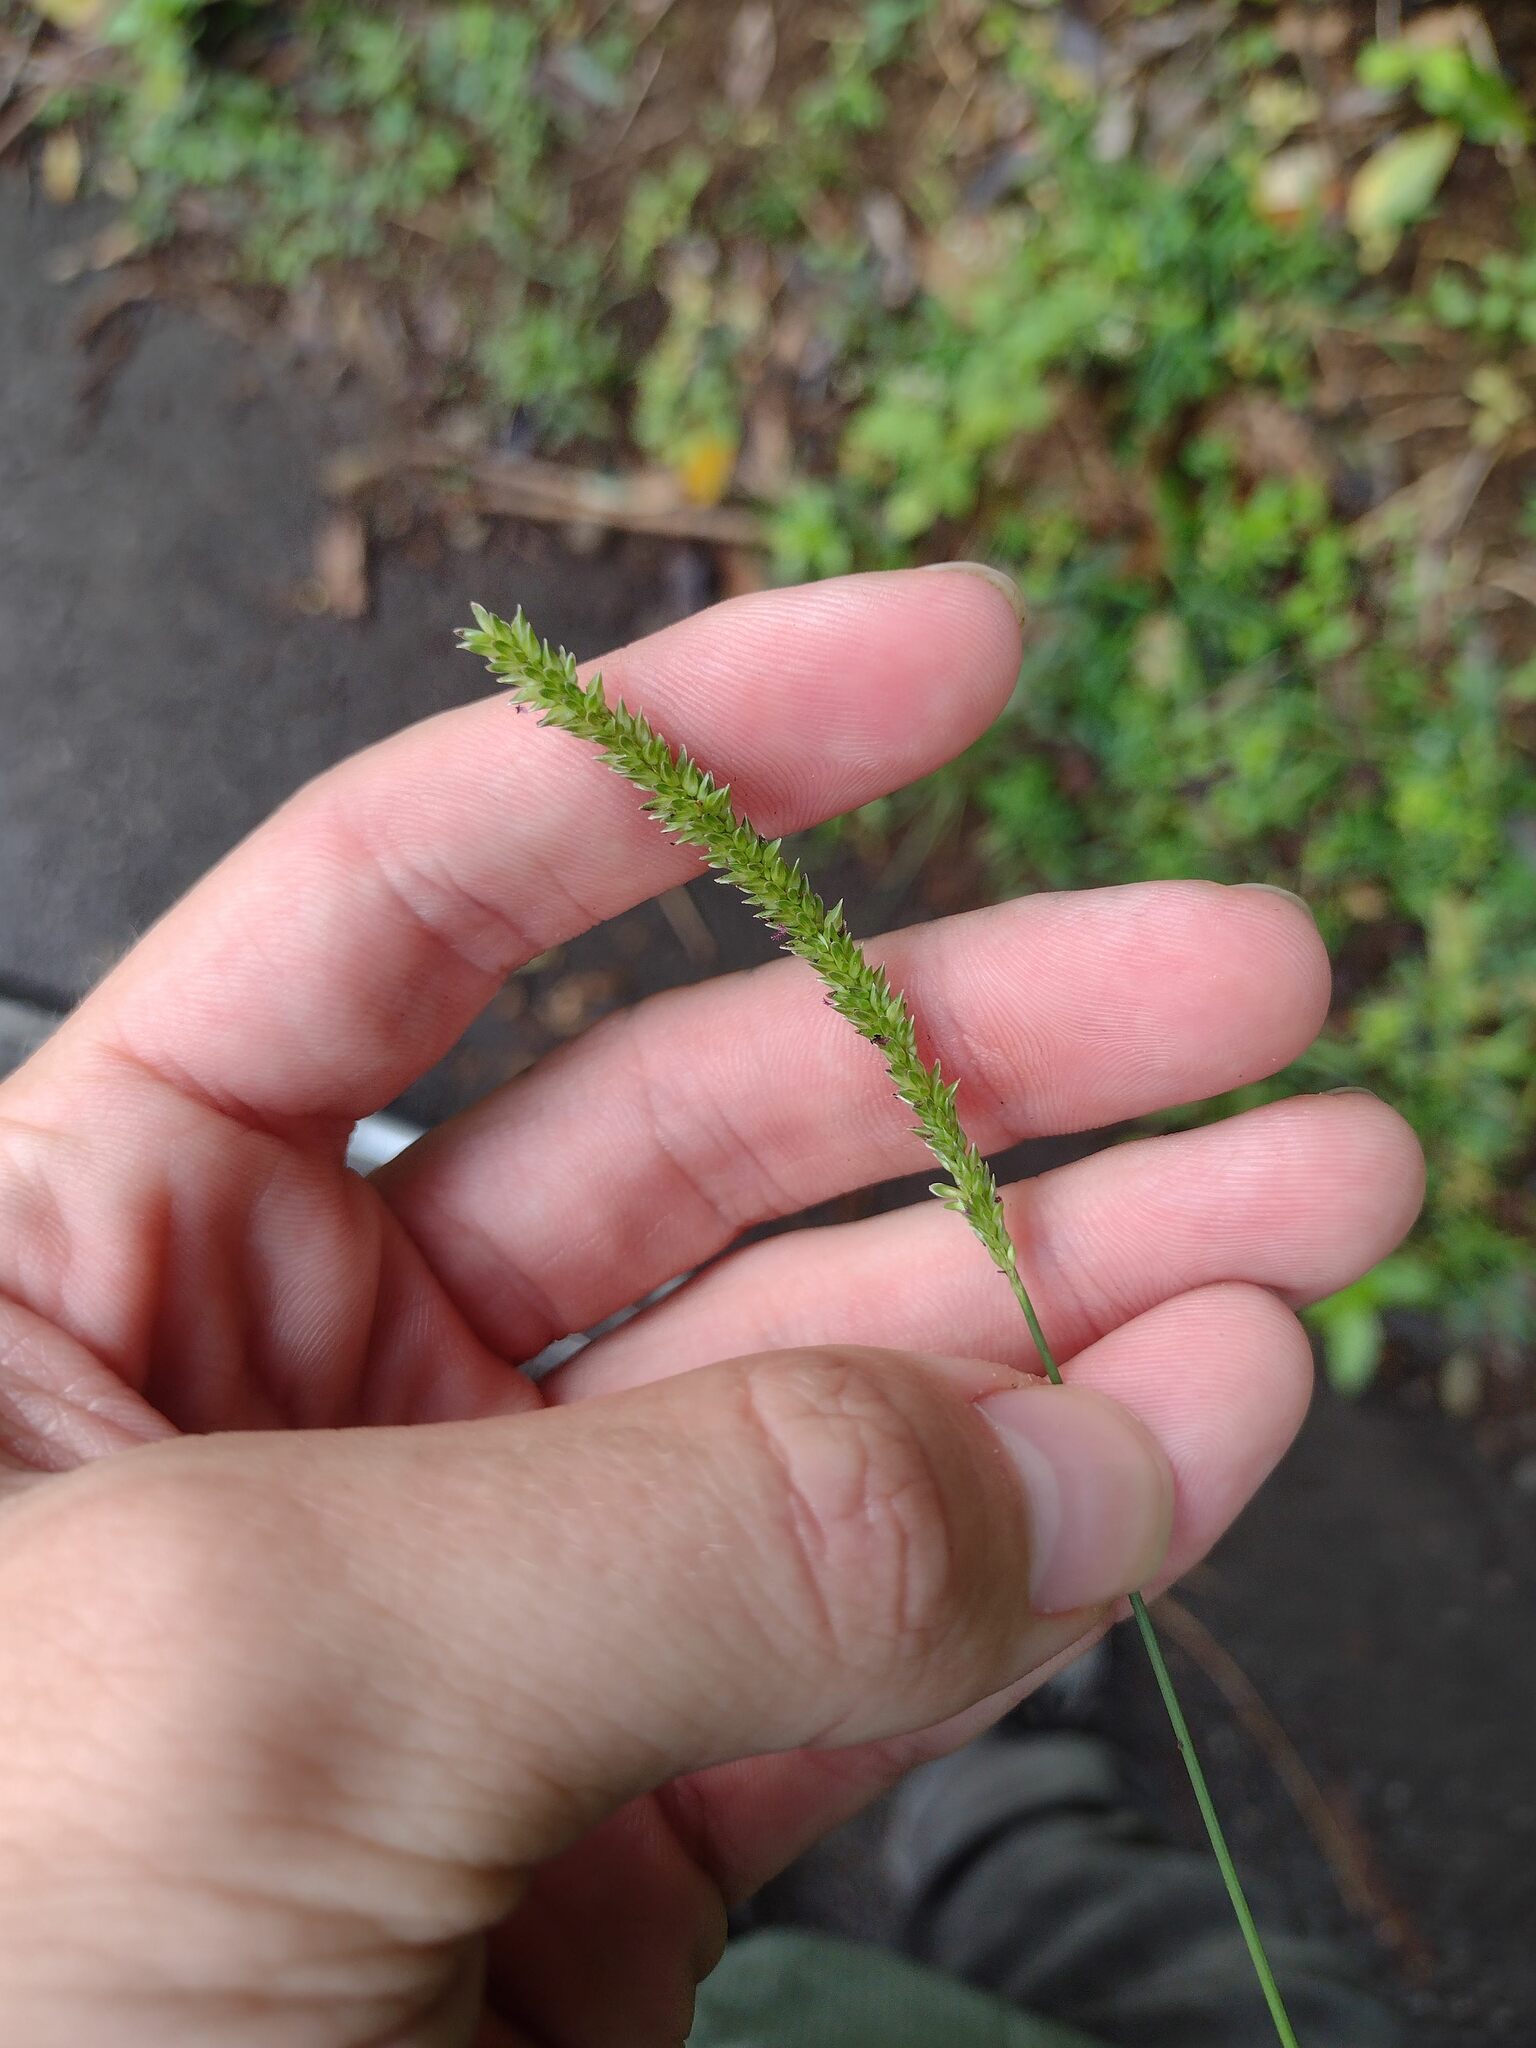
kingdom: Plantae
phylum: Tracheophyta
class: Liliopsida
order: Poales
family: Poaceae
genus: Sacciolepis
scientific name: Sacciolepis indica
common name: Glenwoodgrass
